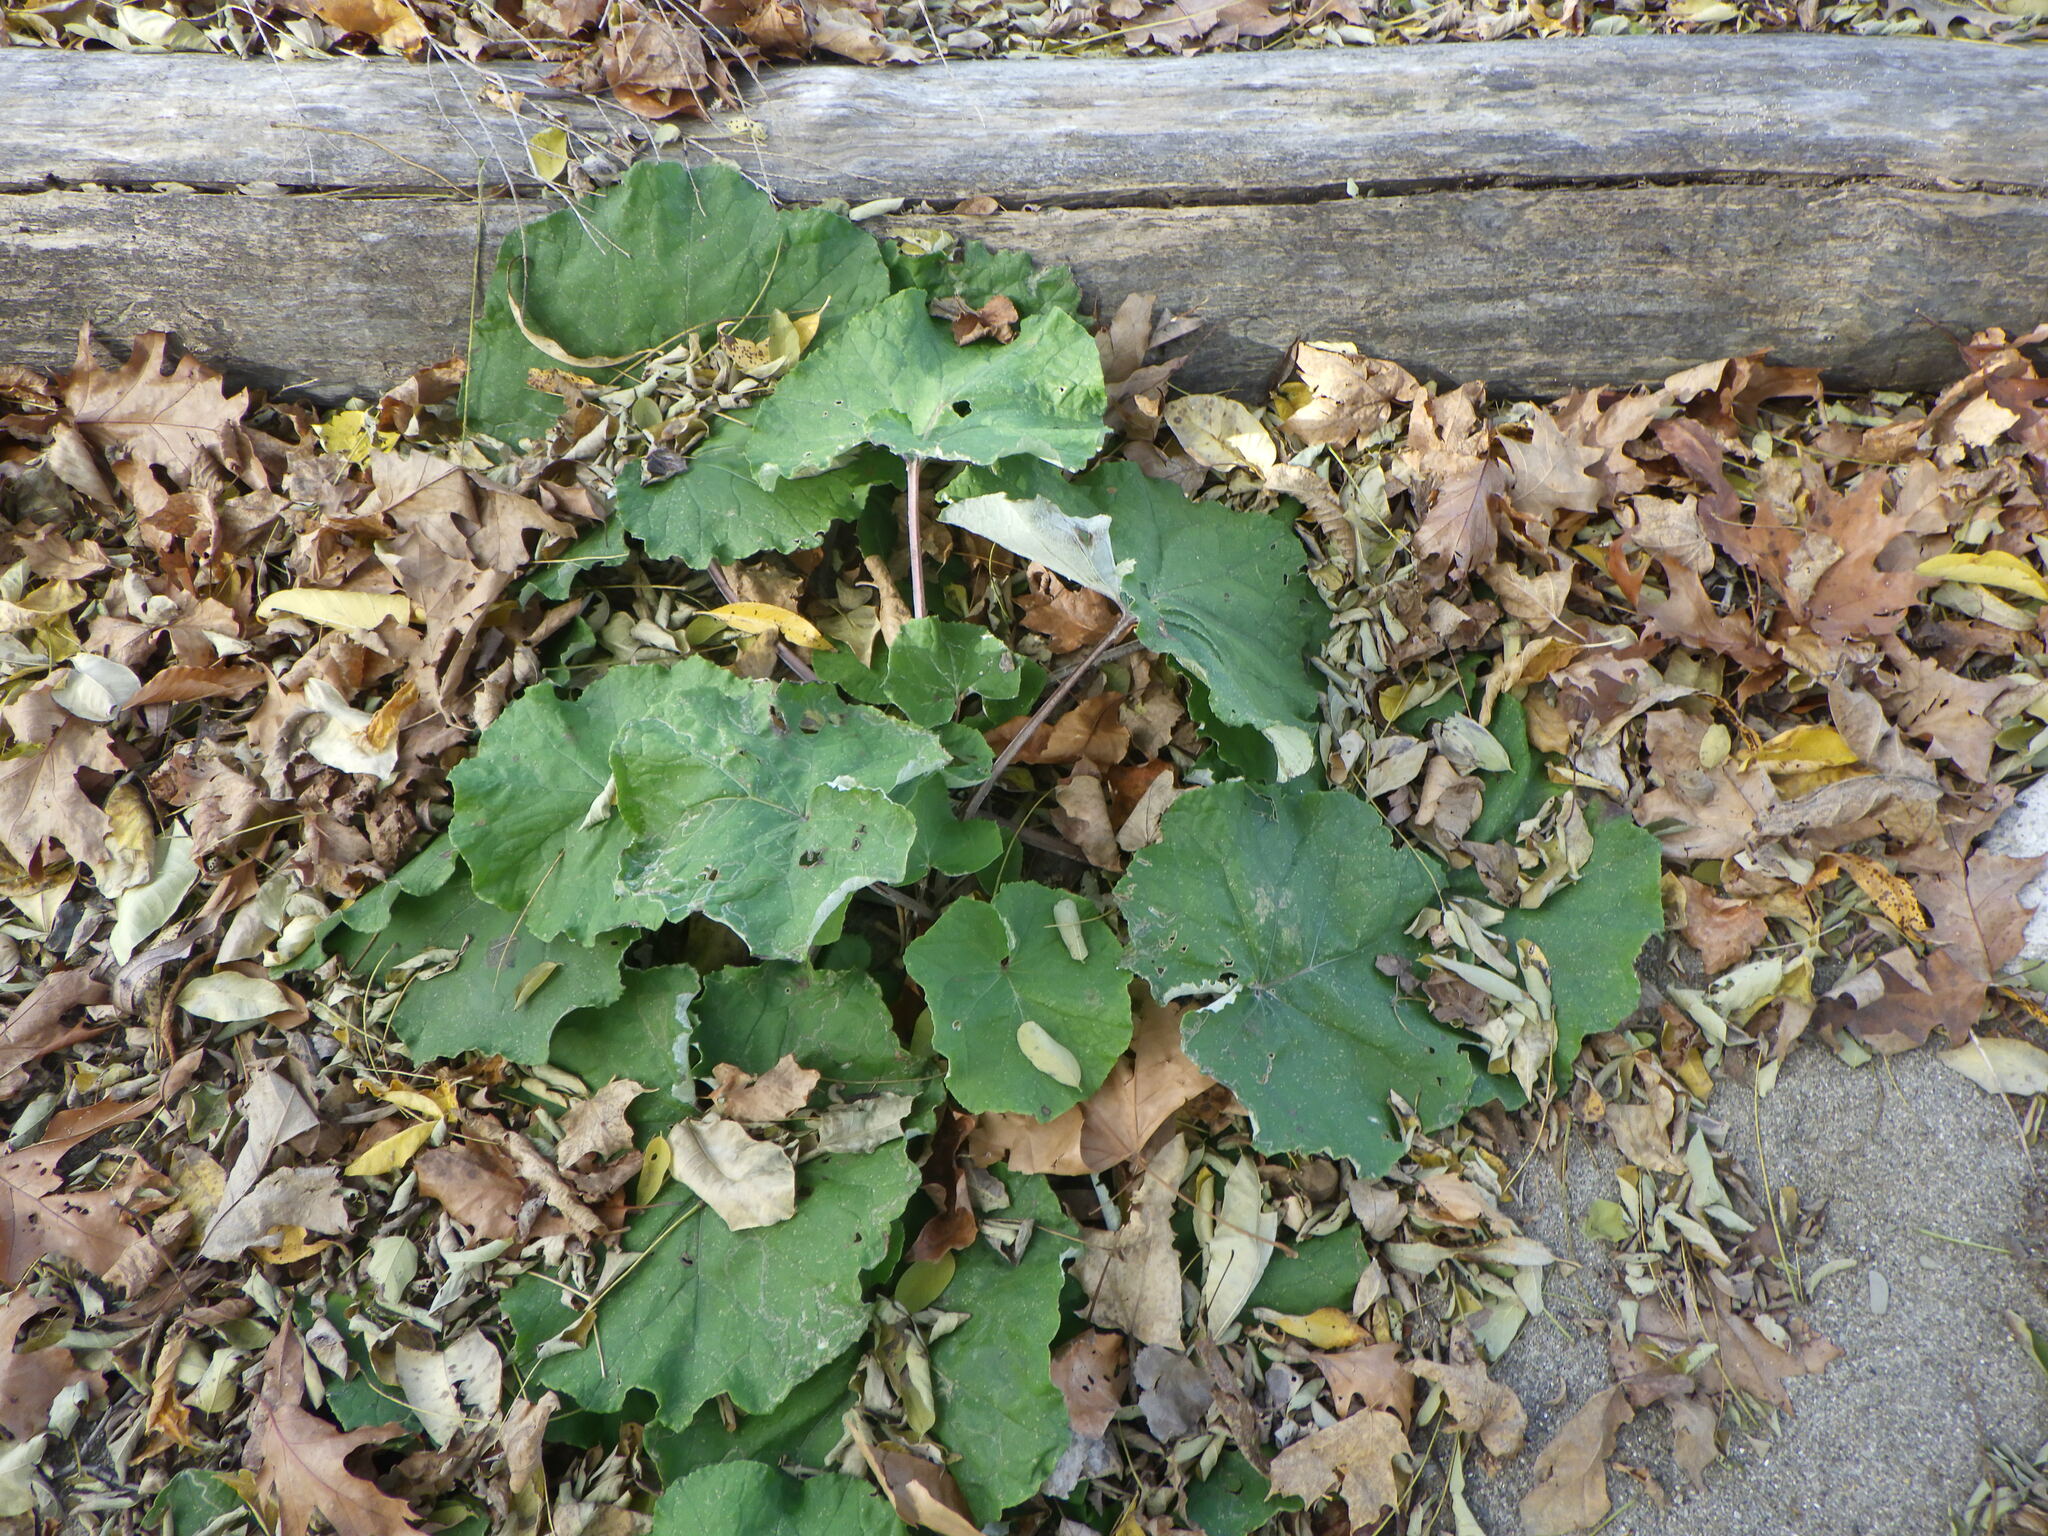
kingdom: Plantae
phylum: Tracheophyta
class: Magnoliopsida
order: Asterales
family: Asteraceae
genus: Tussilago
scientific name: Tussilago farfara
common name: Coltsfoot
